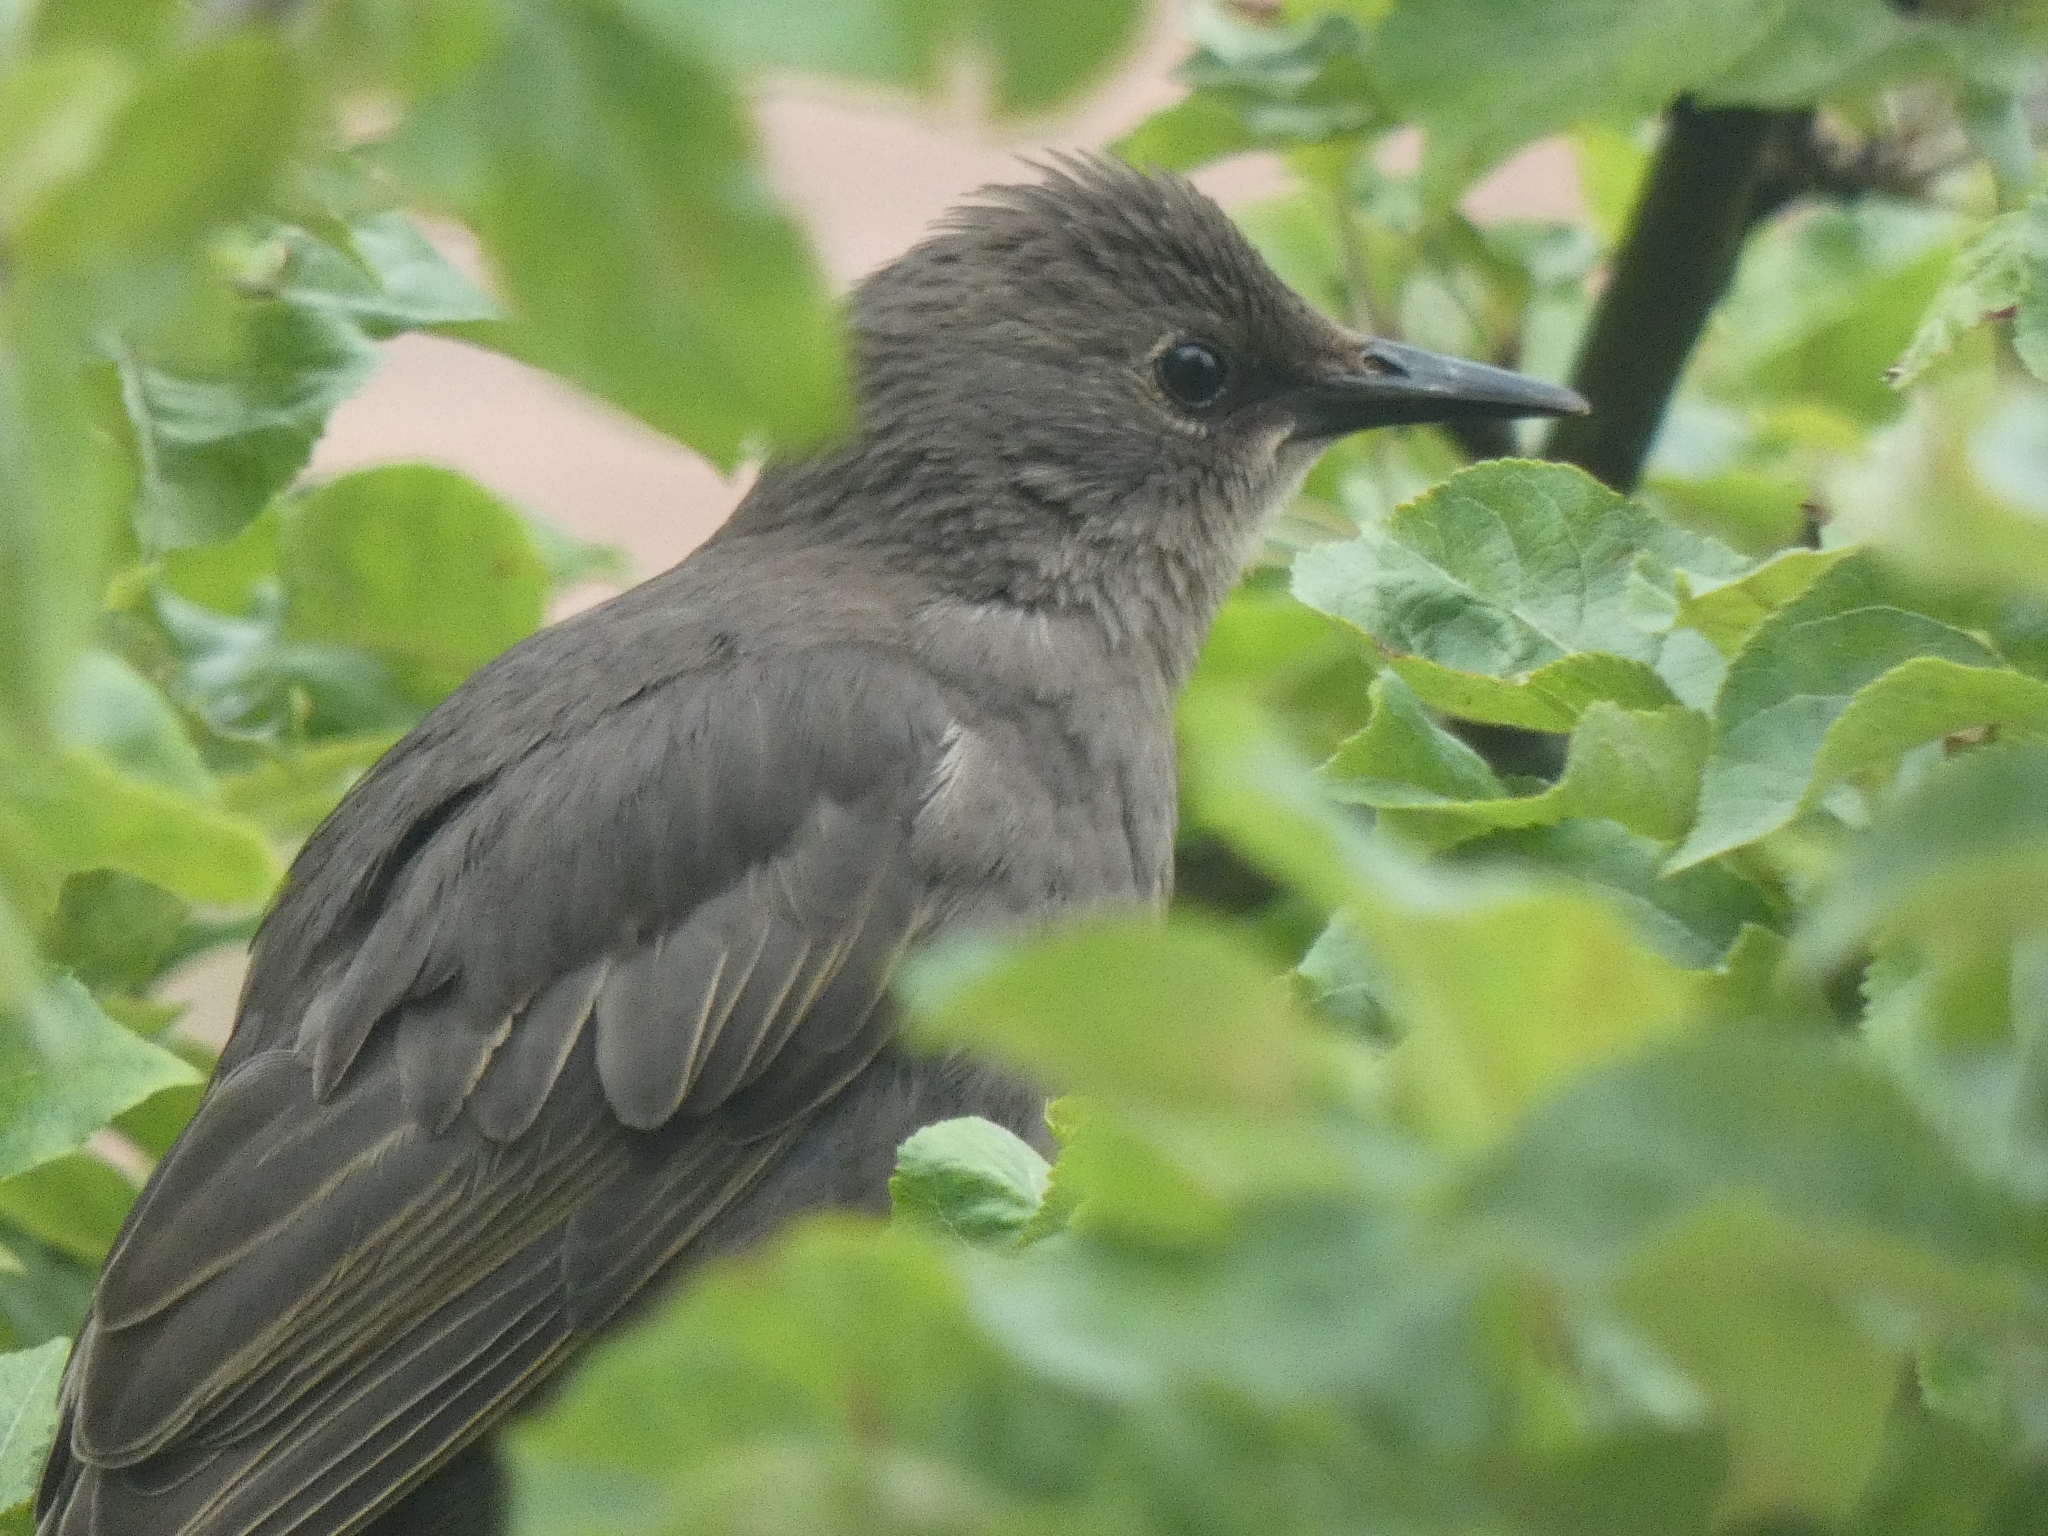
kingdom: Animalia
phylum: Chordata
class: Aves
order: Passeriformes
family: Sturnidae
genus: Sturnus
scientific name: Sturnus vulgaris
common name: Common starling
